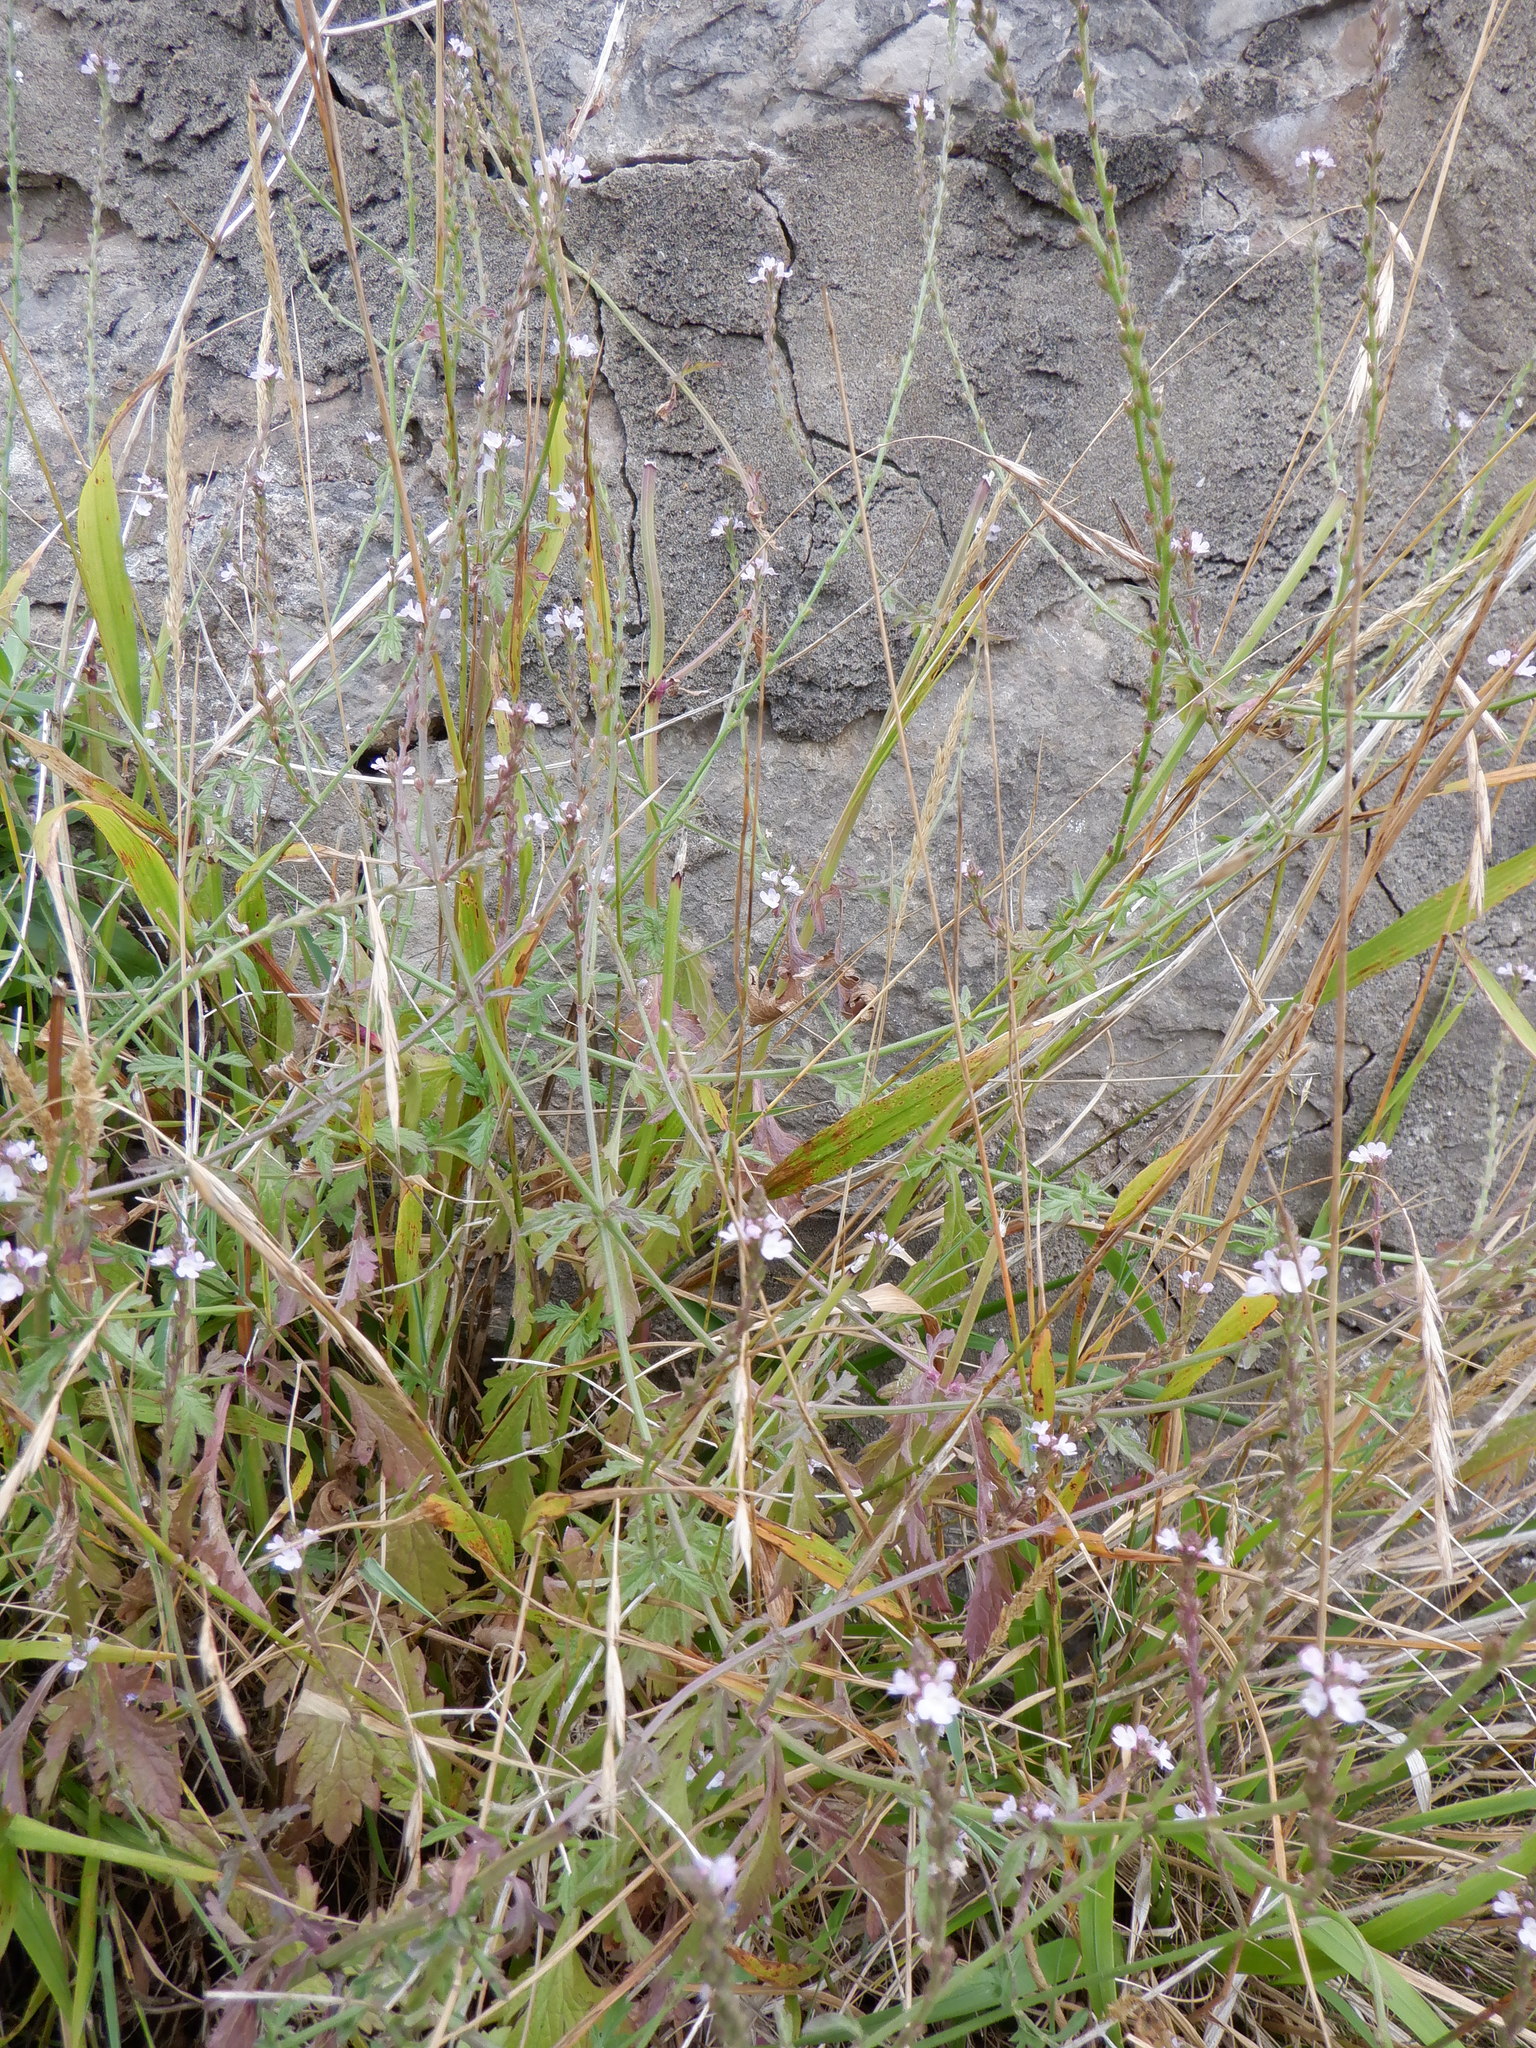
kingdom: Plantae
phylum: Tracheophyta
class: Magnoliopsida
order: Lamiales
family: Verbenaceae
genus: Verbena
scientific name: Verbena officinalis
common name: Vervain
